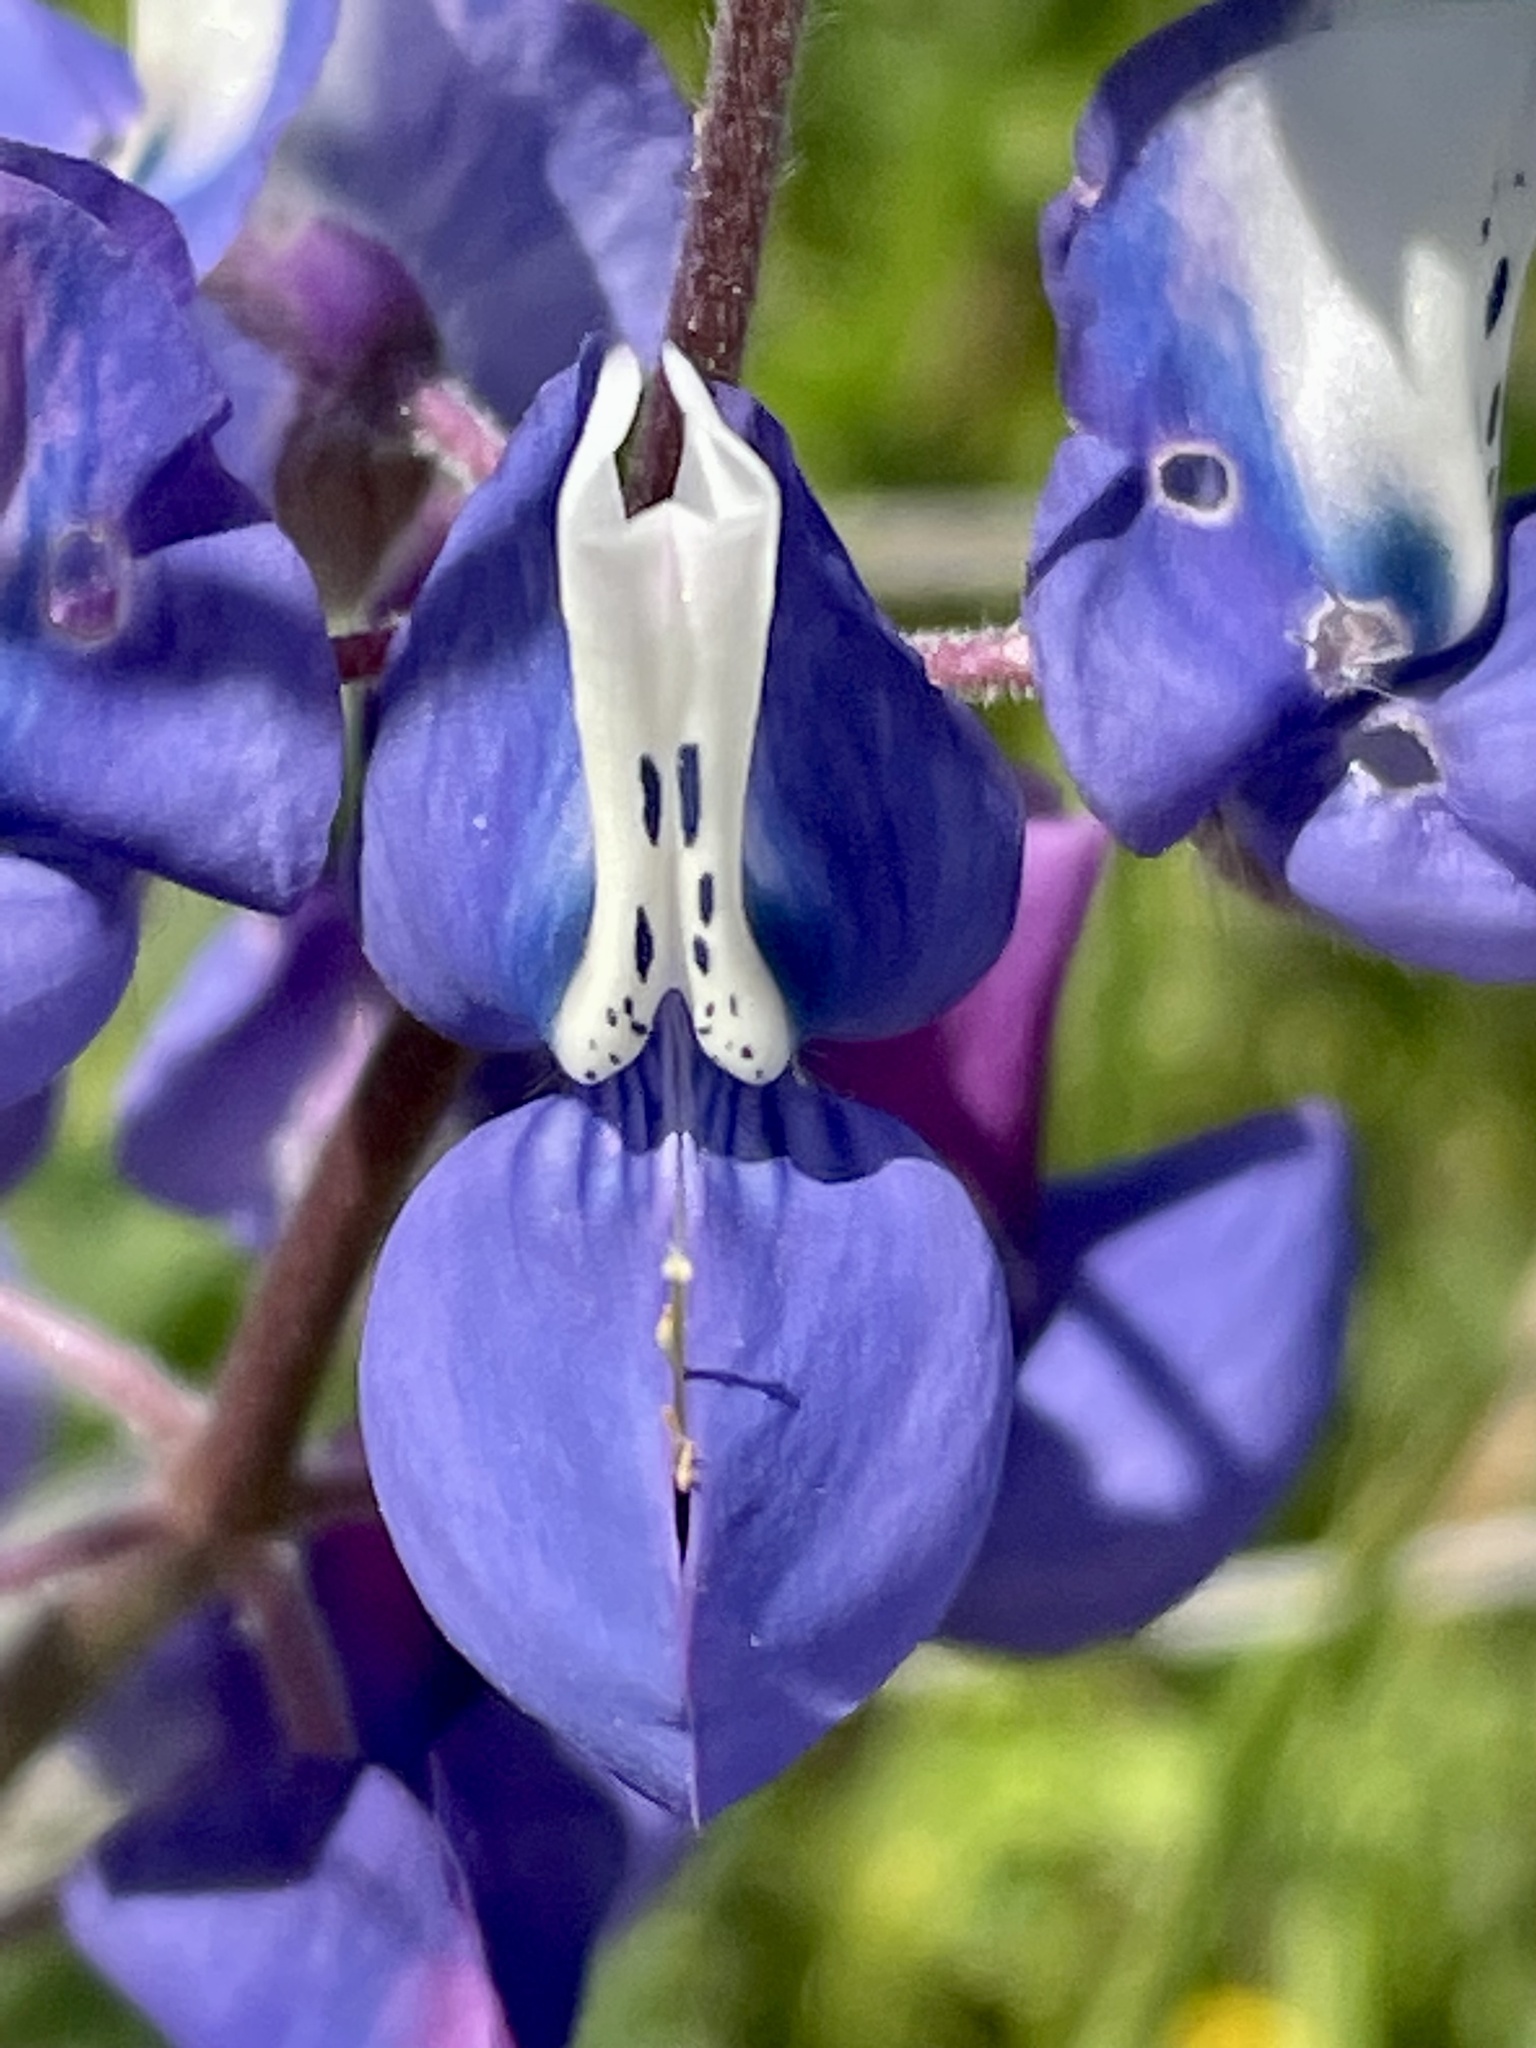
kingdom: Plantae
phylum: Tracheophyta
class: Magnoliopsida
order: Fabales
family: Fabaceae
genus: Lupinus
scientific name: Lupinus nanus
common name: Orean blue lupin
